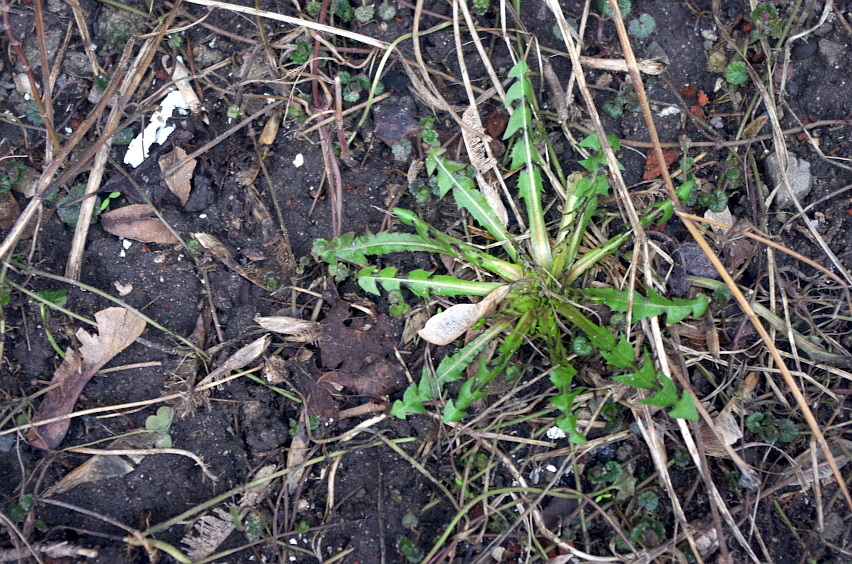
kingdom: Plantae
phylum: Tracheophyta
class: Magnoliopsida
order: Asterales
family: Asteraceae
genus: Taraxacum
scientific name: Taraxacum officinale
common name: Common dandelion
